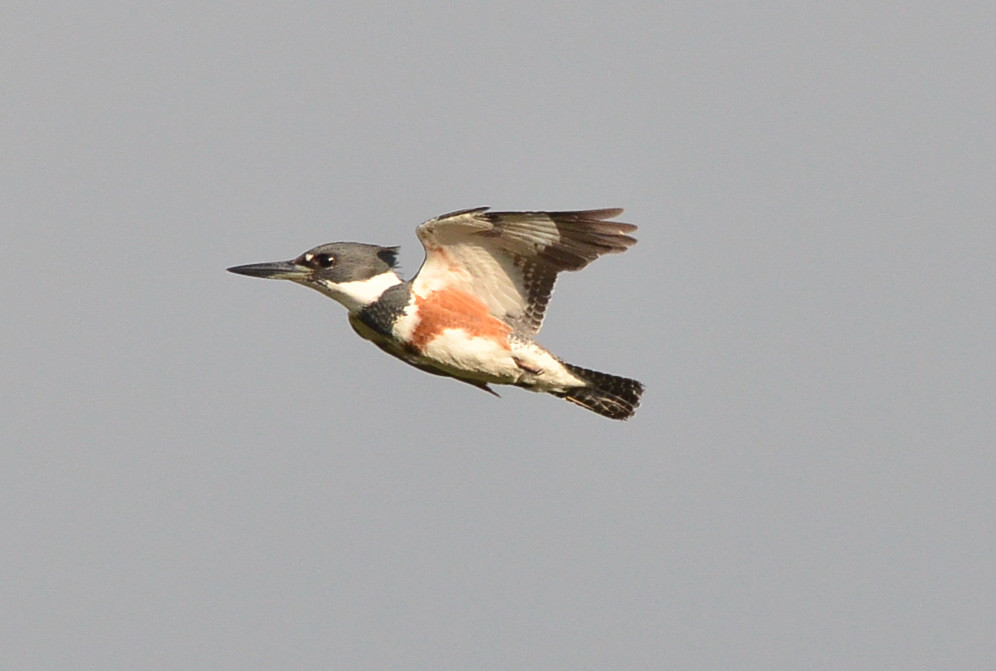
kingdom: Animalia
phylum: Chordata
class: Aves
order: Coraciiformes
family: Alcedinidae
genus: Megaceryle
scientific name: Megaceryle alcyon
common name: Belted kingfisher
